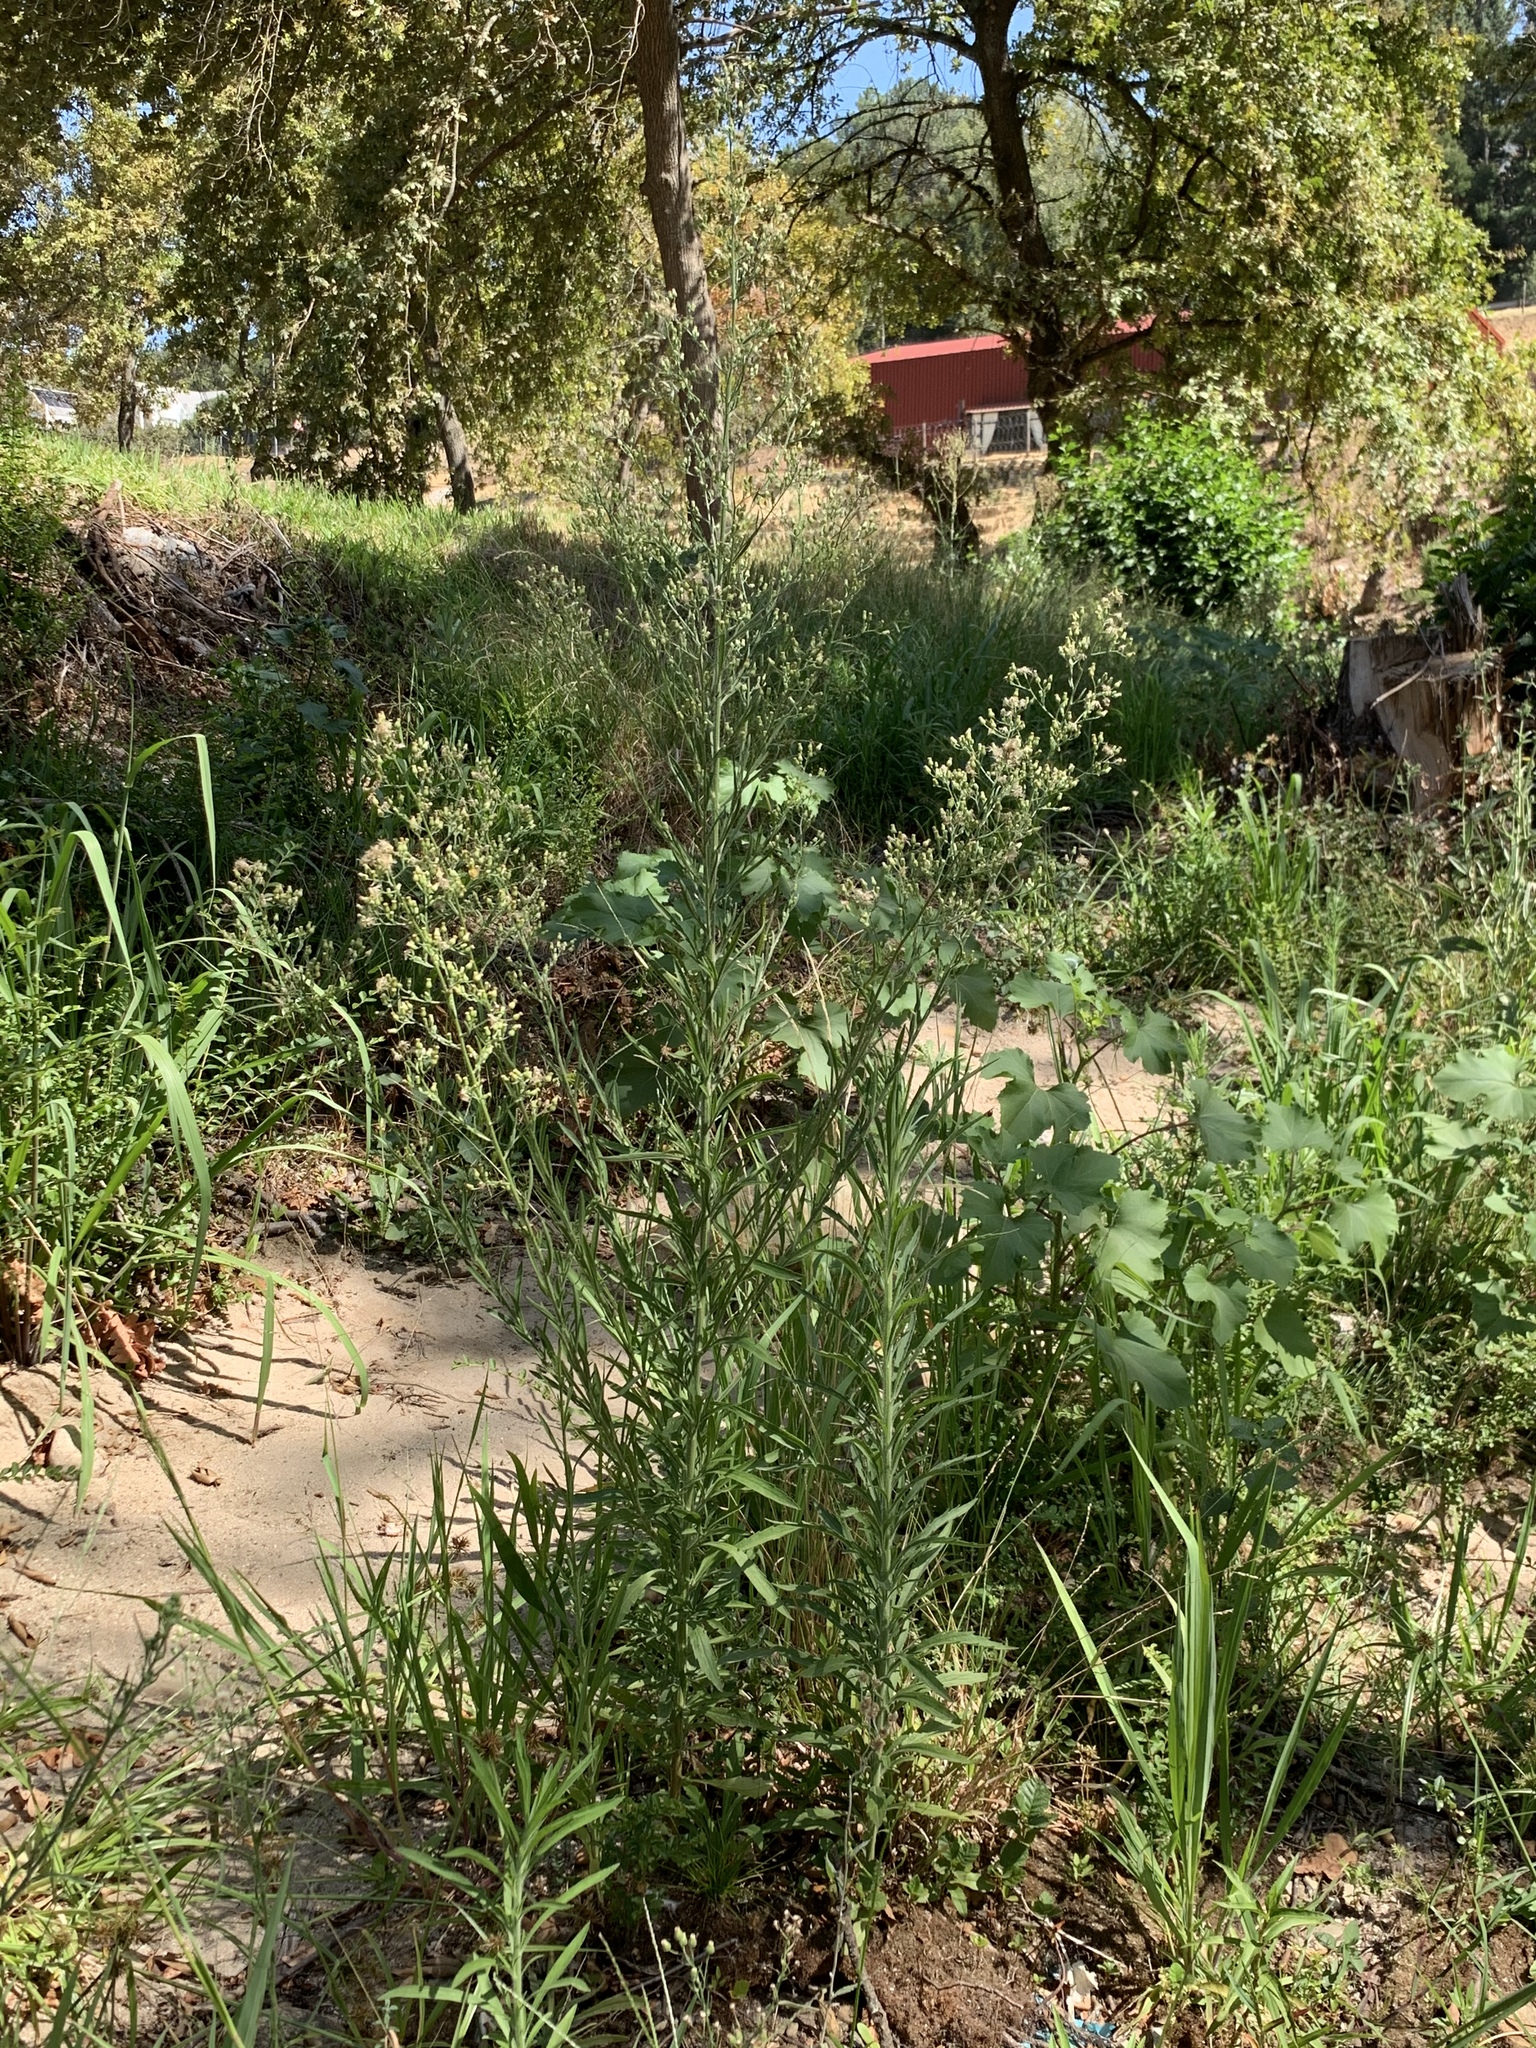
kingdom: Plantae
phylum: Tracheophyta
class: Magnoliopsida
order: Asterales
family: Asteraceae
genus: Erigeron
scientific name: Erigeron sumatrensis
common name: Daisy
